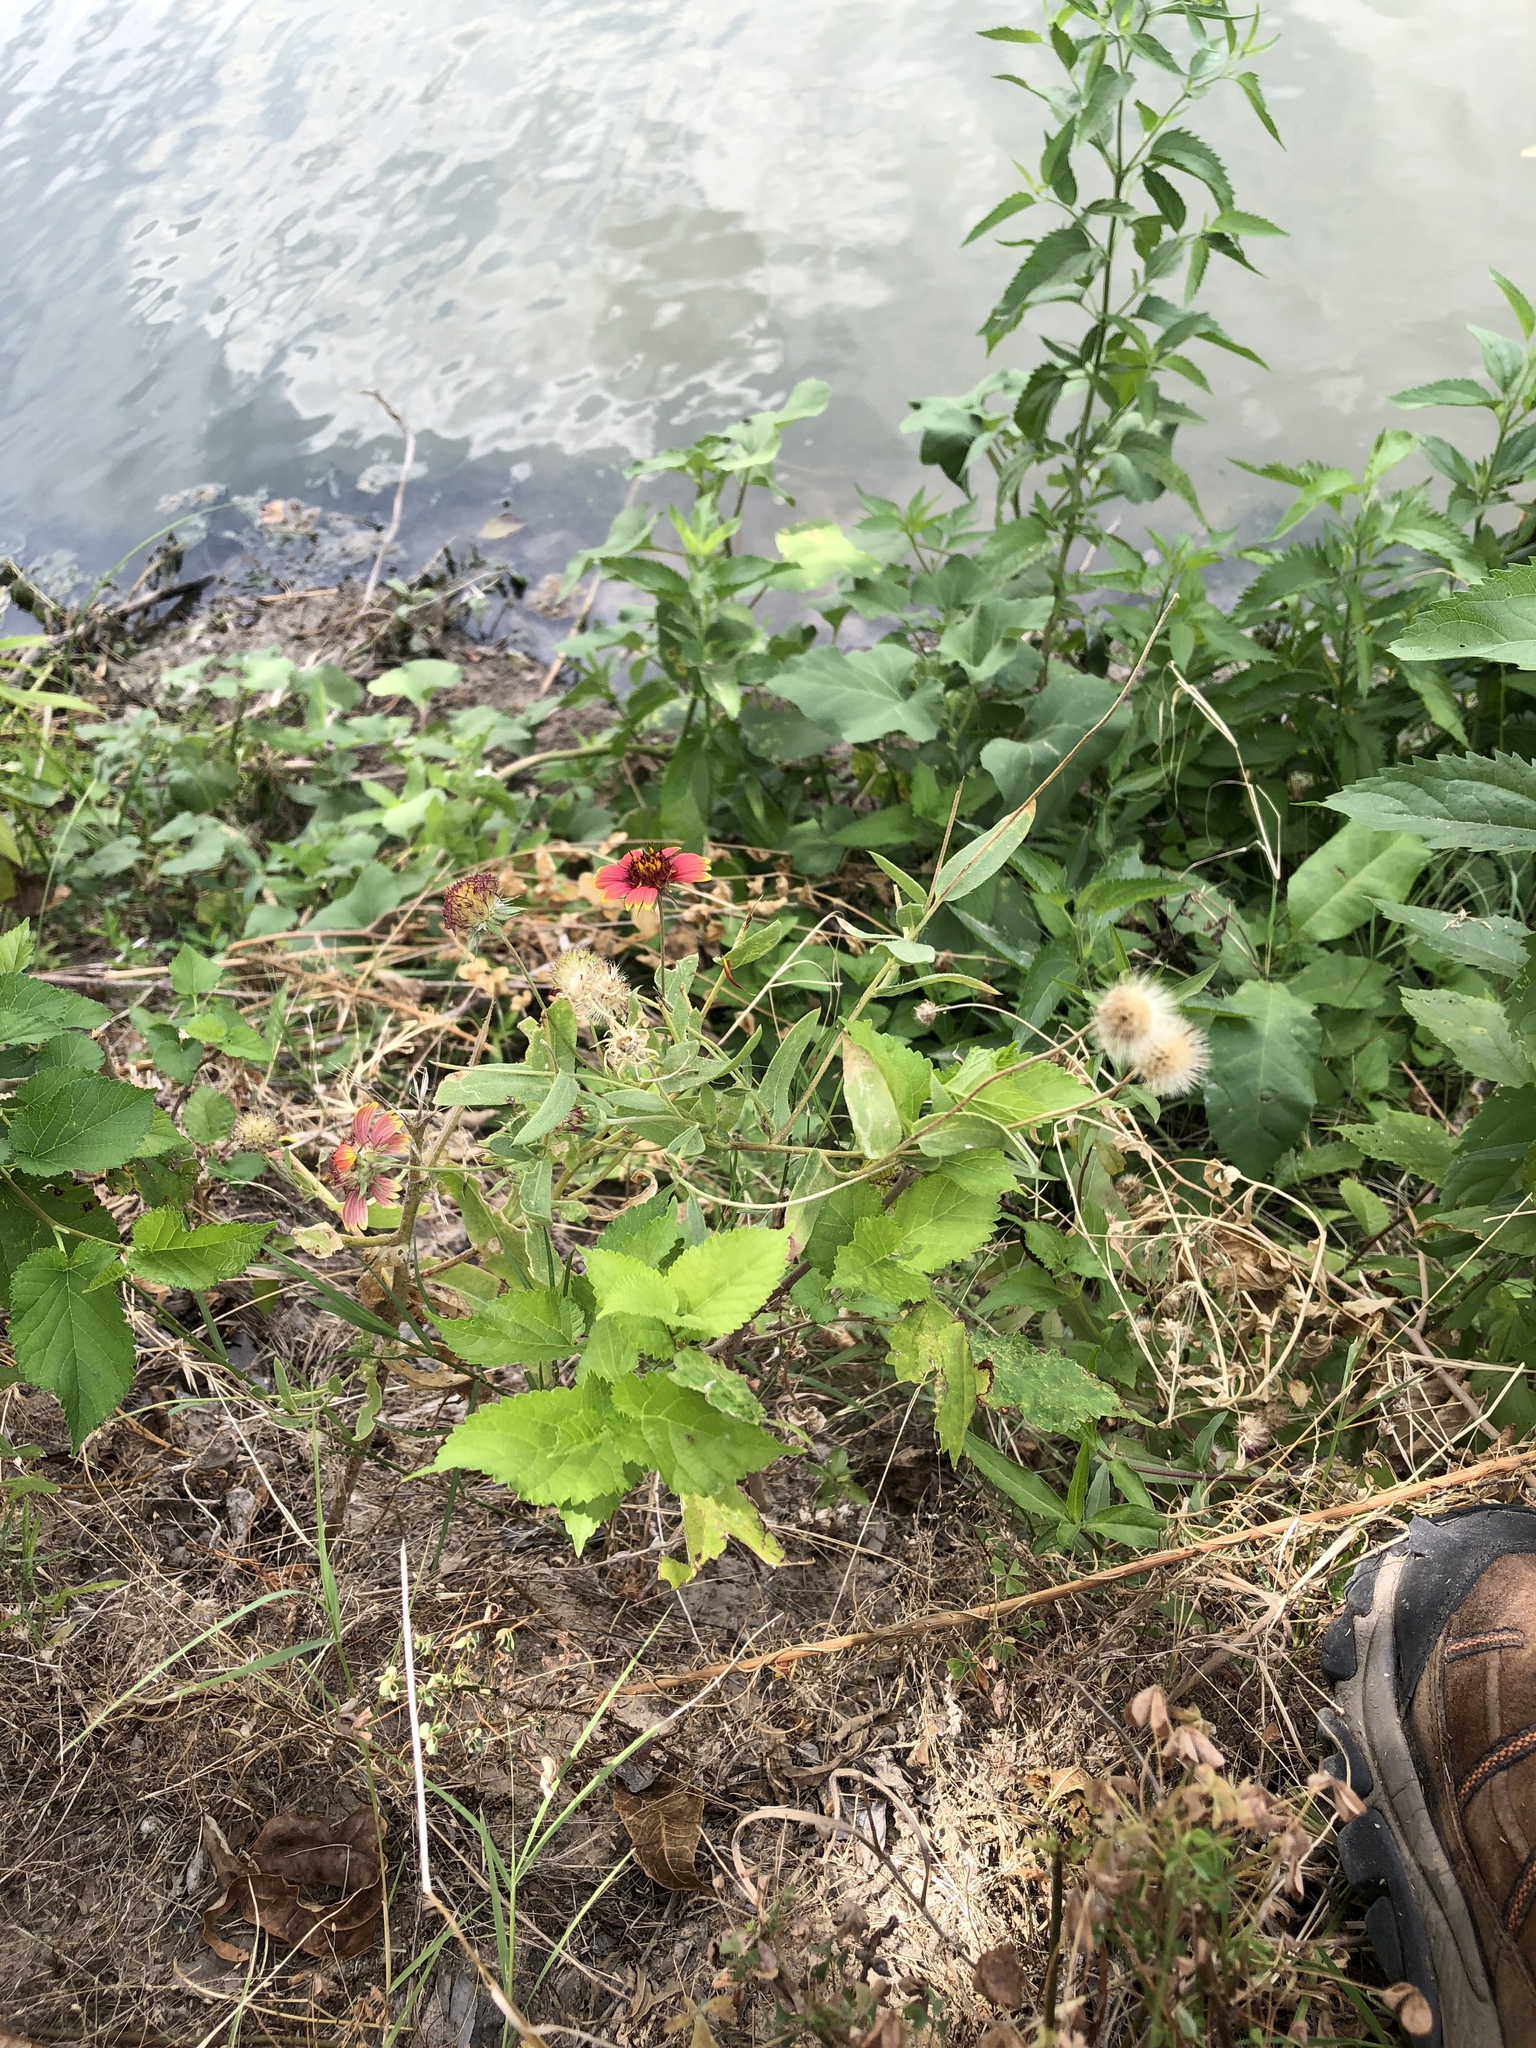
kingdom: Plantae
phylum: Tracheophyta
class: Magnoliopsida
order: Asterales
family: Asteraceae
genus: Gaillardia
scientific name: Gaillardia pulchella
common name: Firewheel
